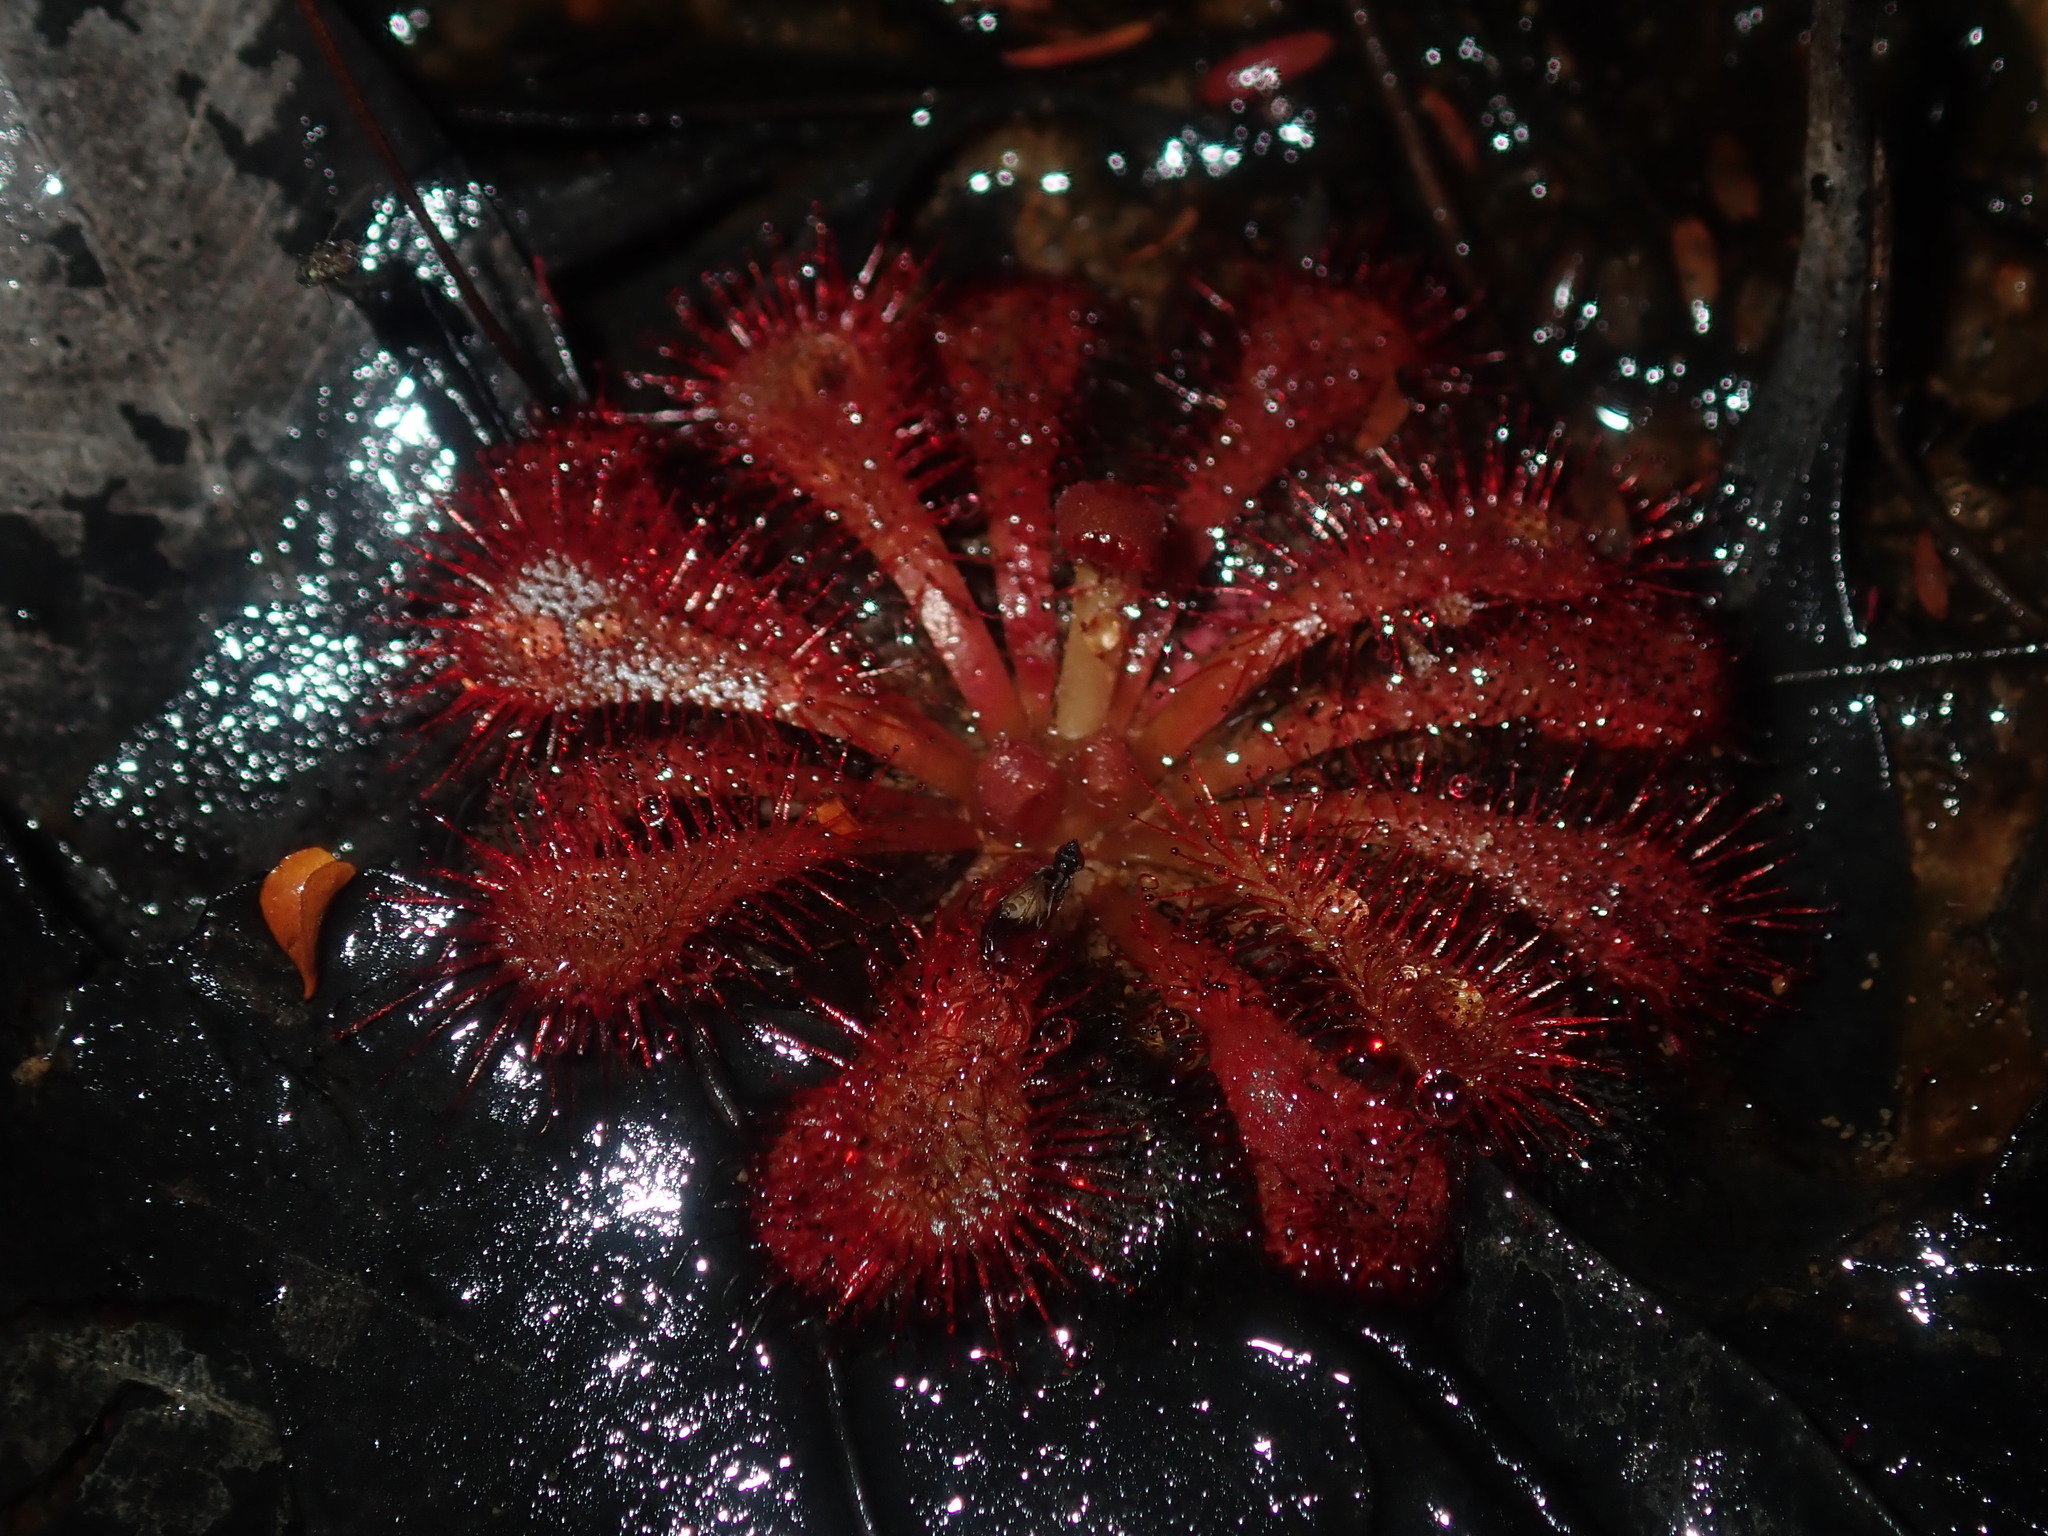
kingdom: Plantae
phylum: Tracheophyta
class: Magnoliopsida
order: Caryophyllales
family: Droseraceae
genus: Drosera
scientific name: Drosera spatulata
